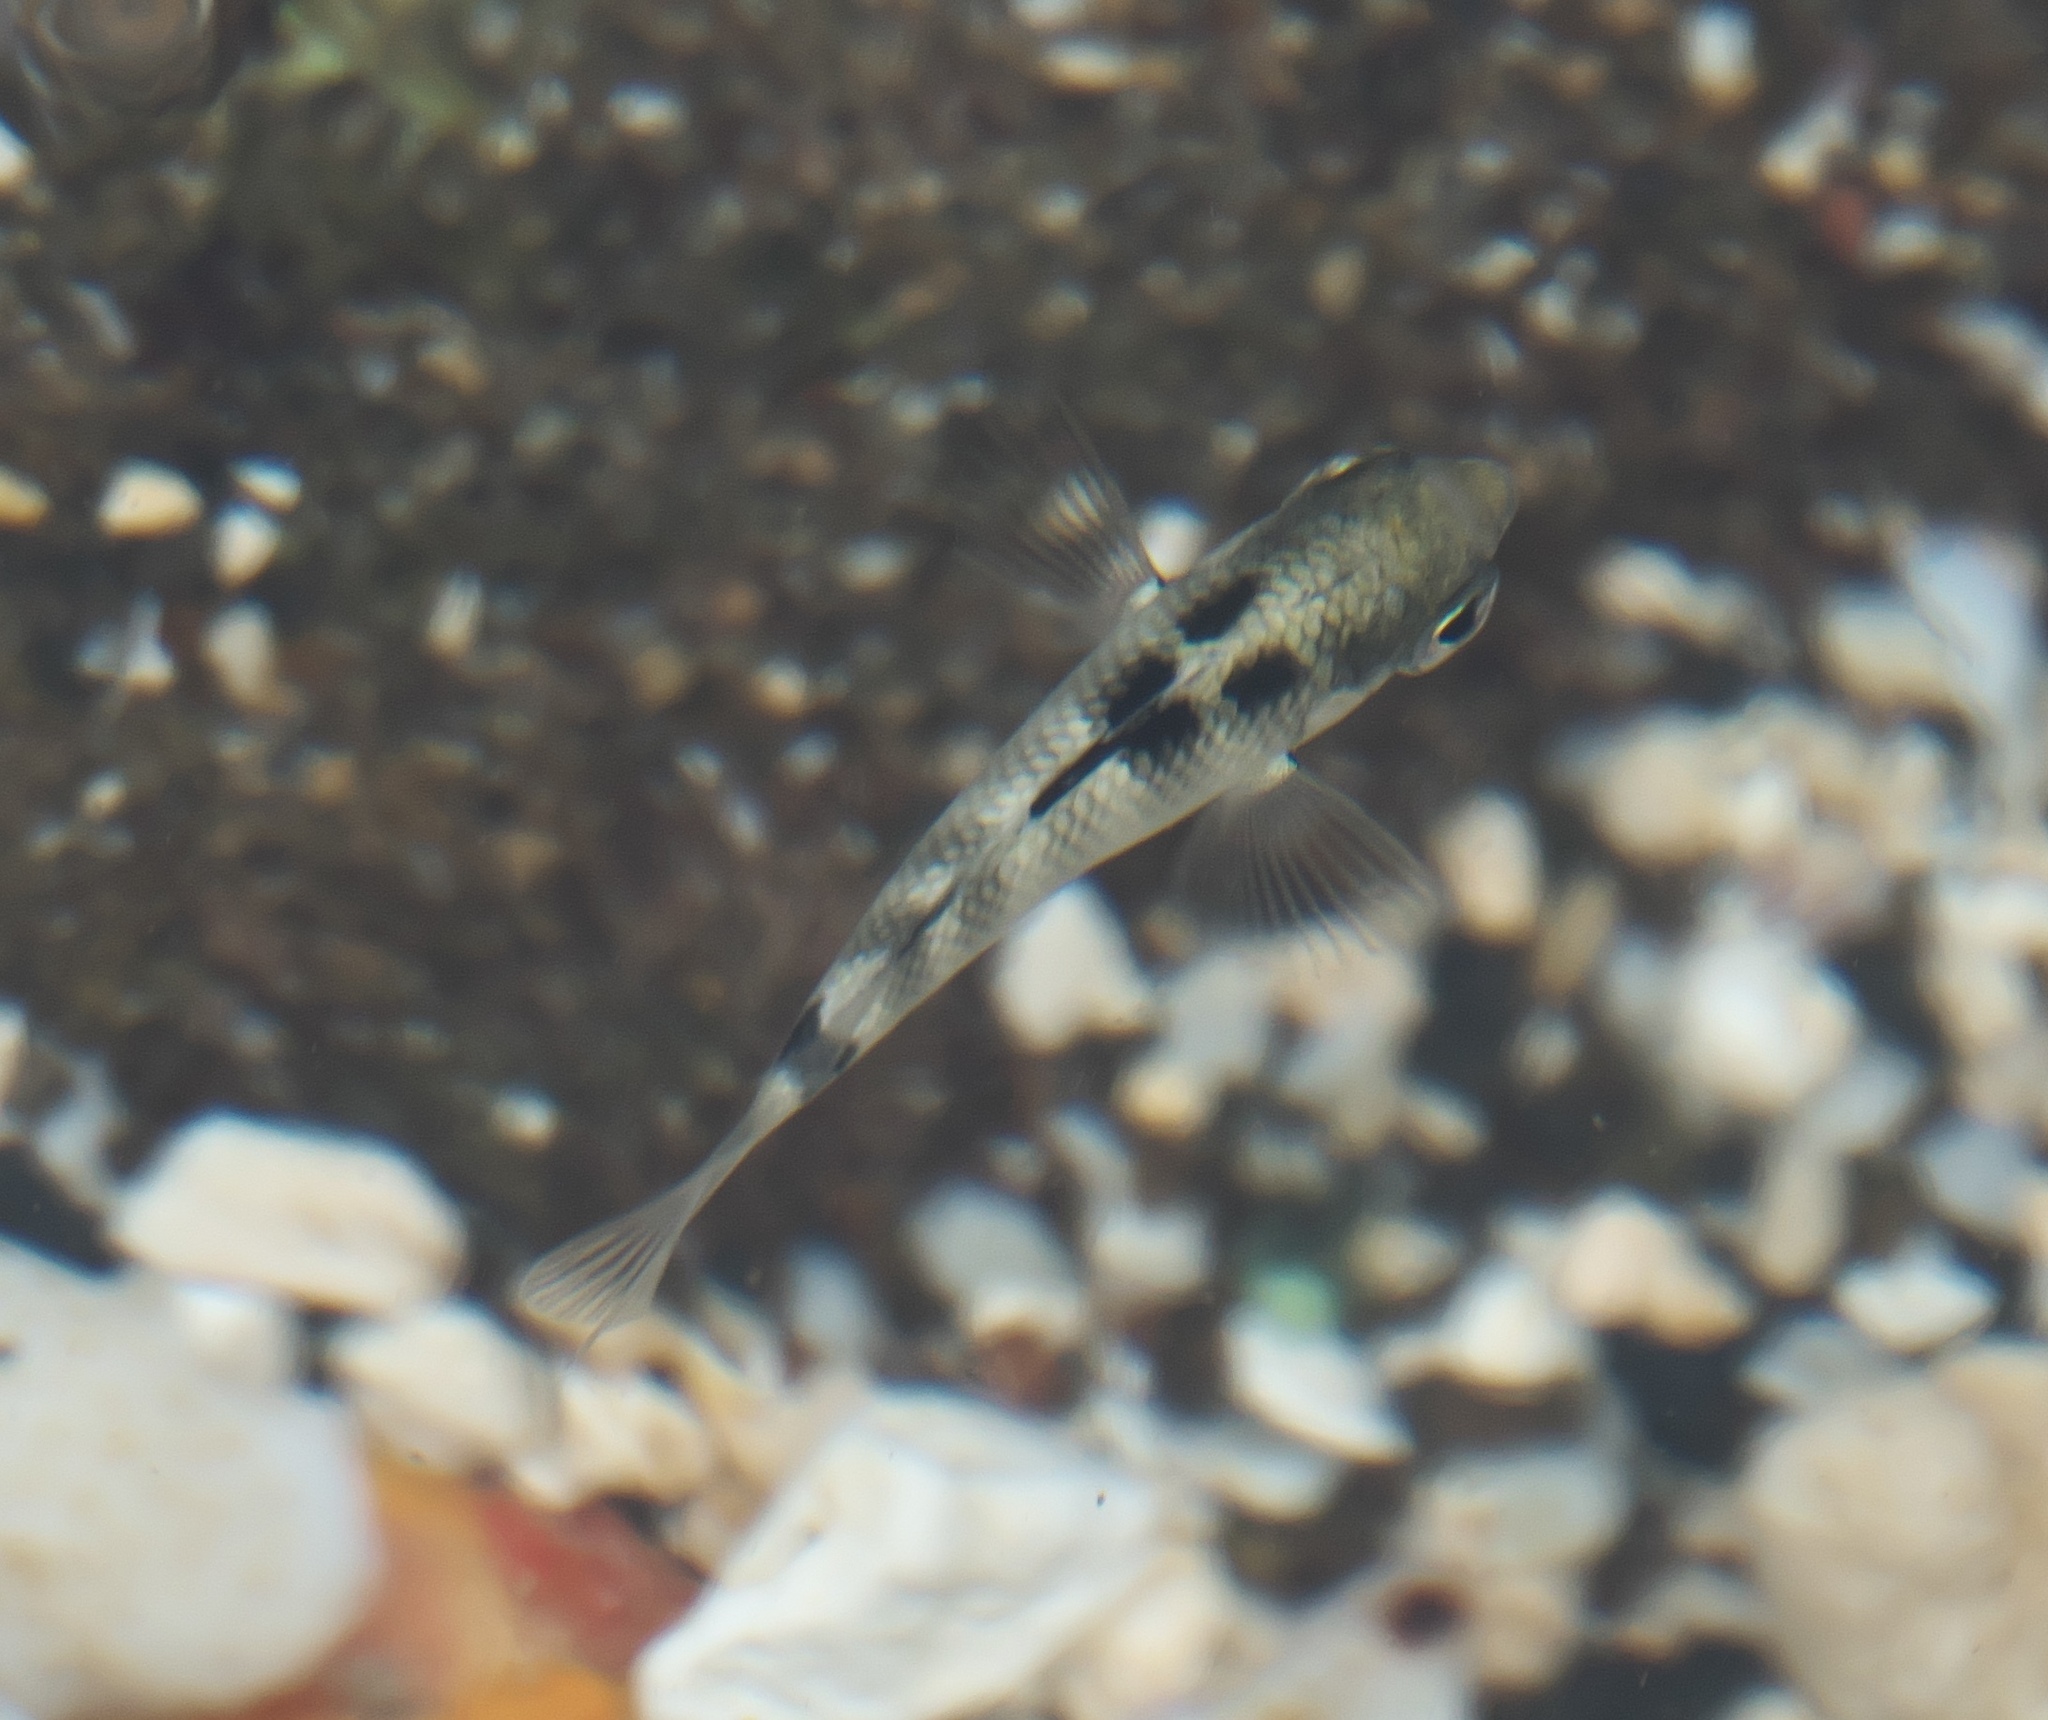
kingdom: Animalia
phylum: Chordata
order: Perciformes
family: Pomacentridae
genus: Abudefduf
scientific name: Abudefduf septemfasciatus
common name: Banded sergeant
